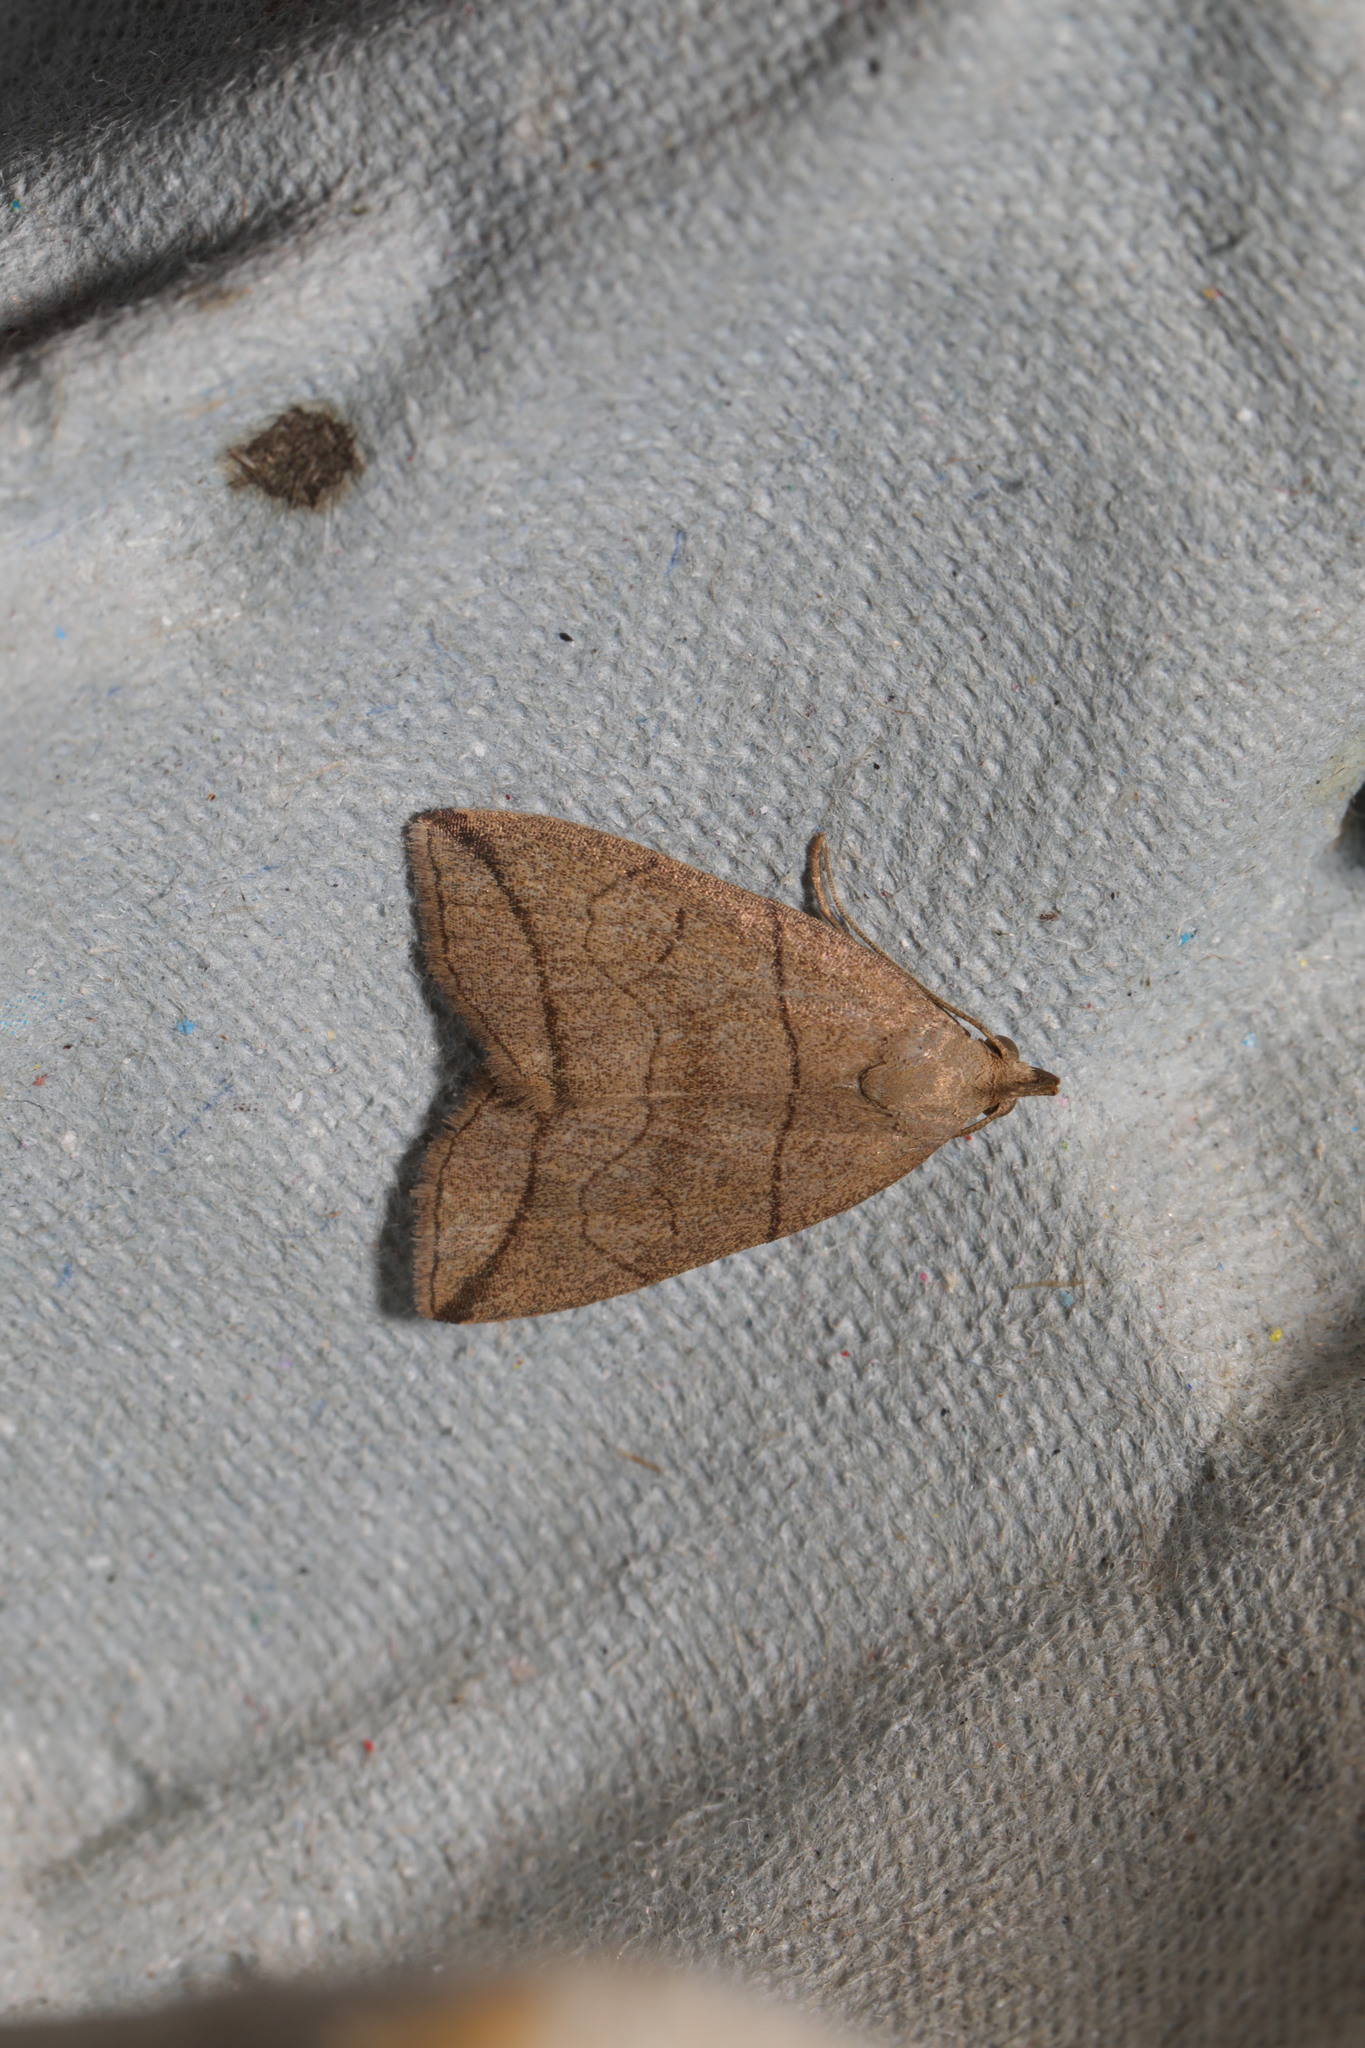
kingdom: Animalia
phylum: Arthropoda
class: Insecta
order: Lepidoptera
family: Erebidae
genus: Herminia
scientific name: Herminia grisealis
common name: Small fan-foot
